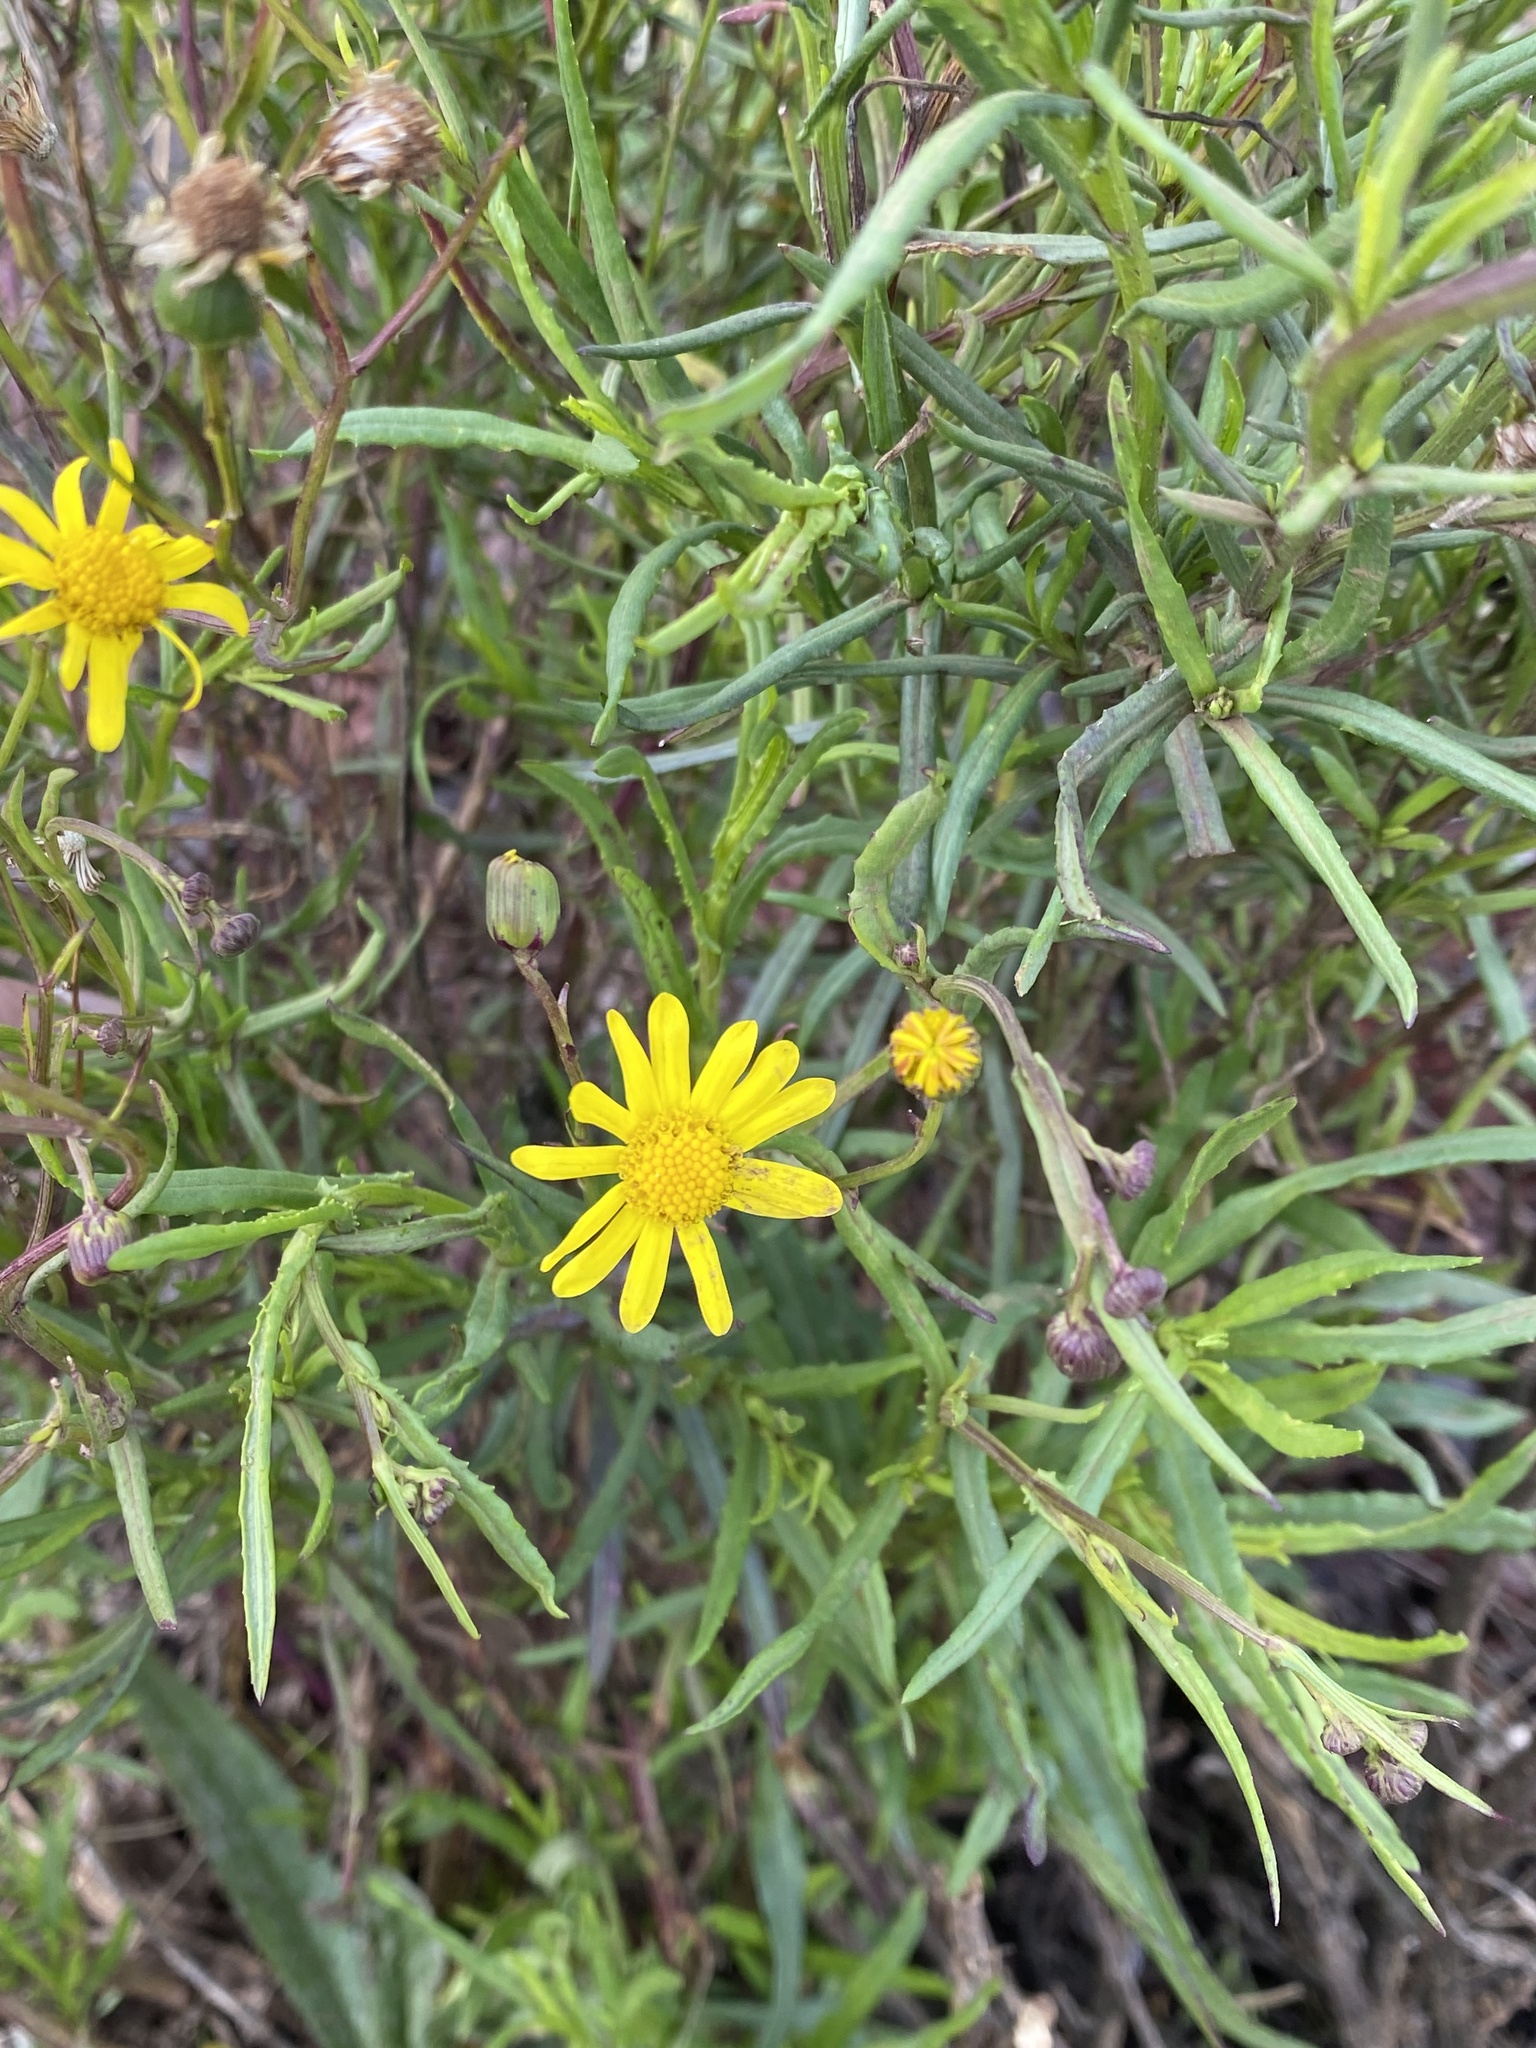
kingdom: Plantae
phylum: Tracheophyta
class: Magnoliopsida
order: Asterales
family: Asteraceae
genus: Senecio
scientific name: Senecio madagascariensis
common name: Madagascar ragwort
